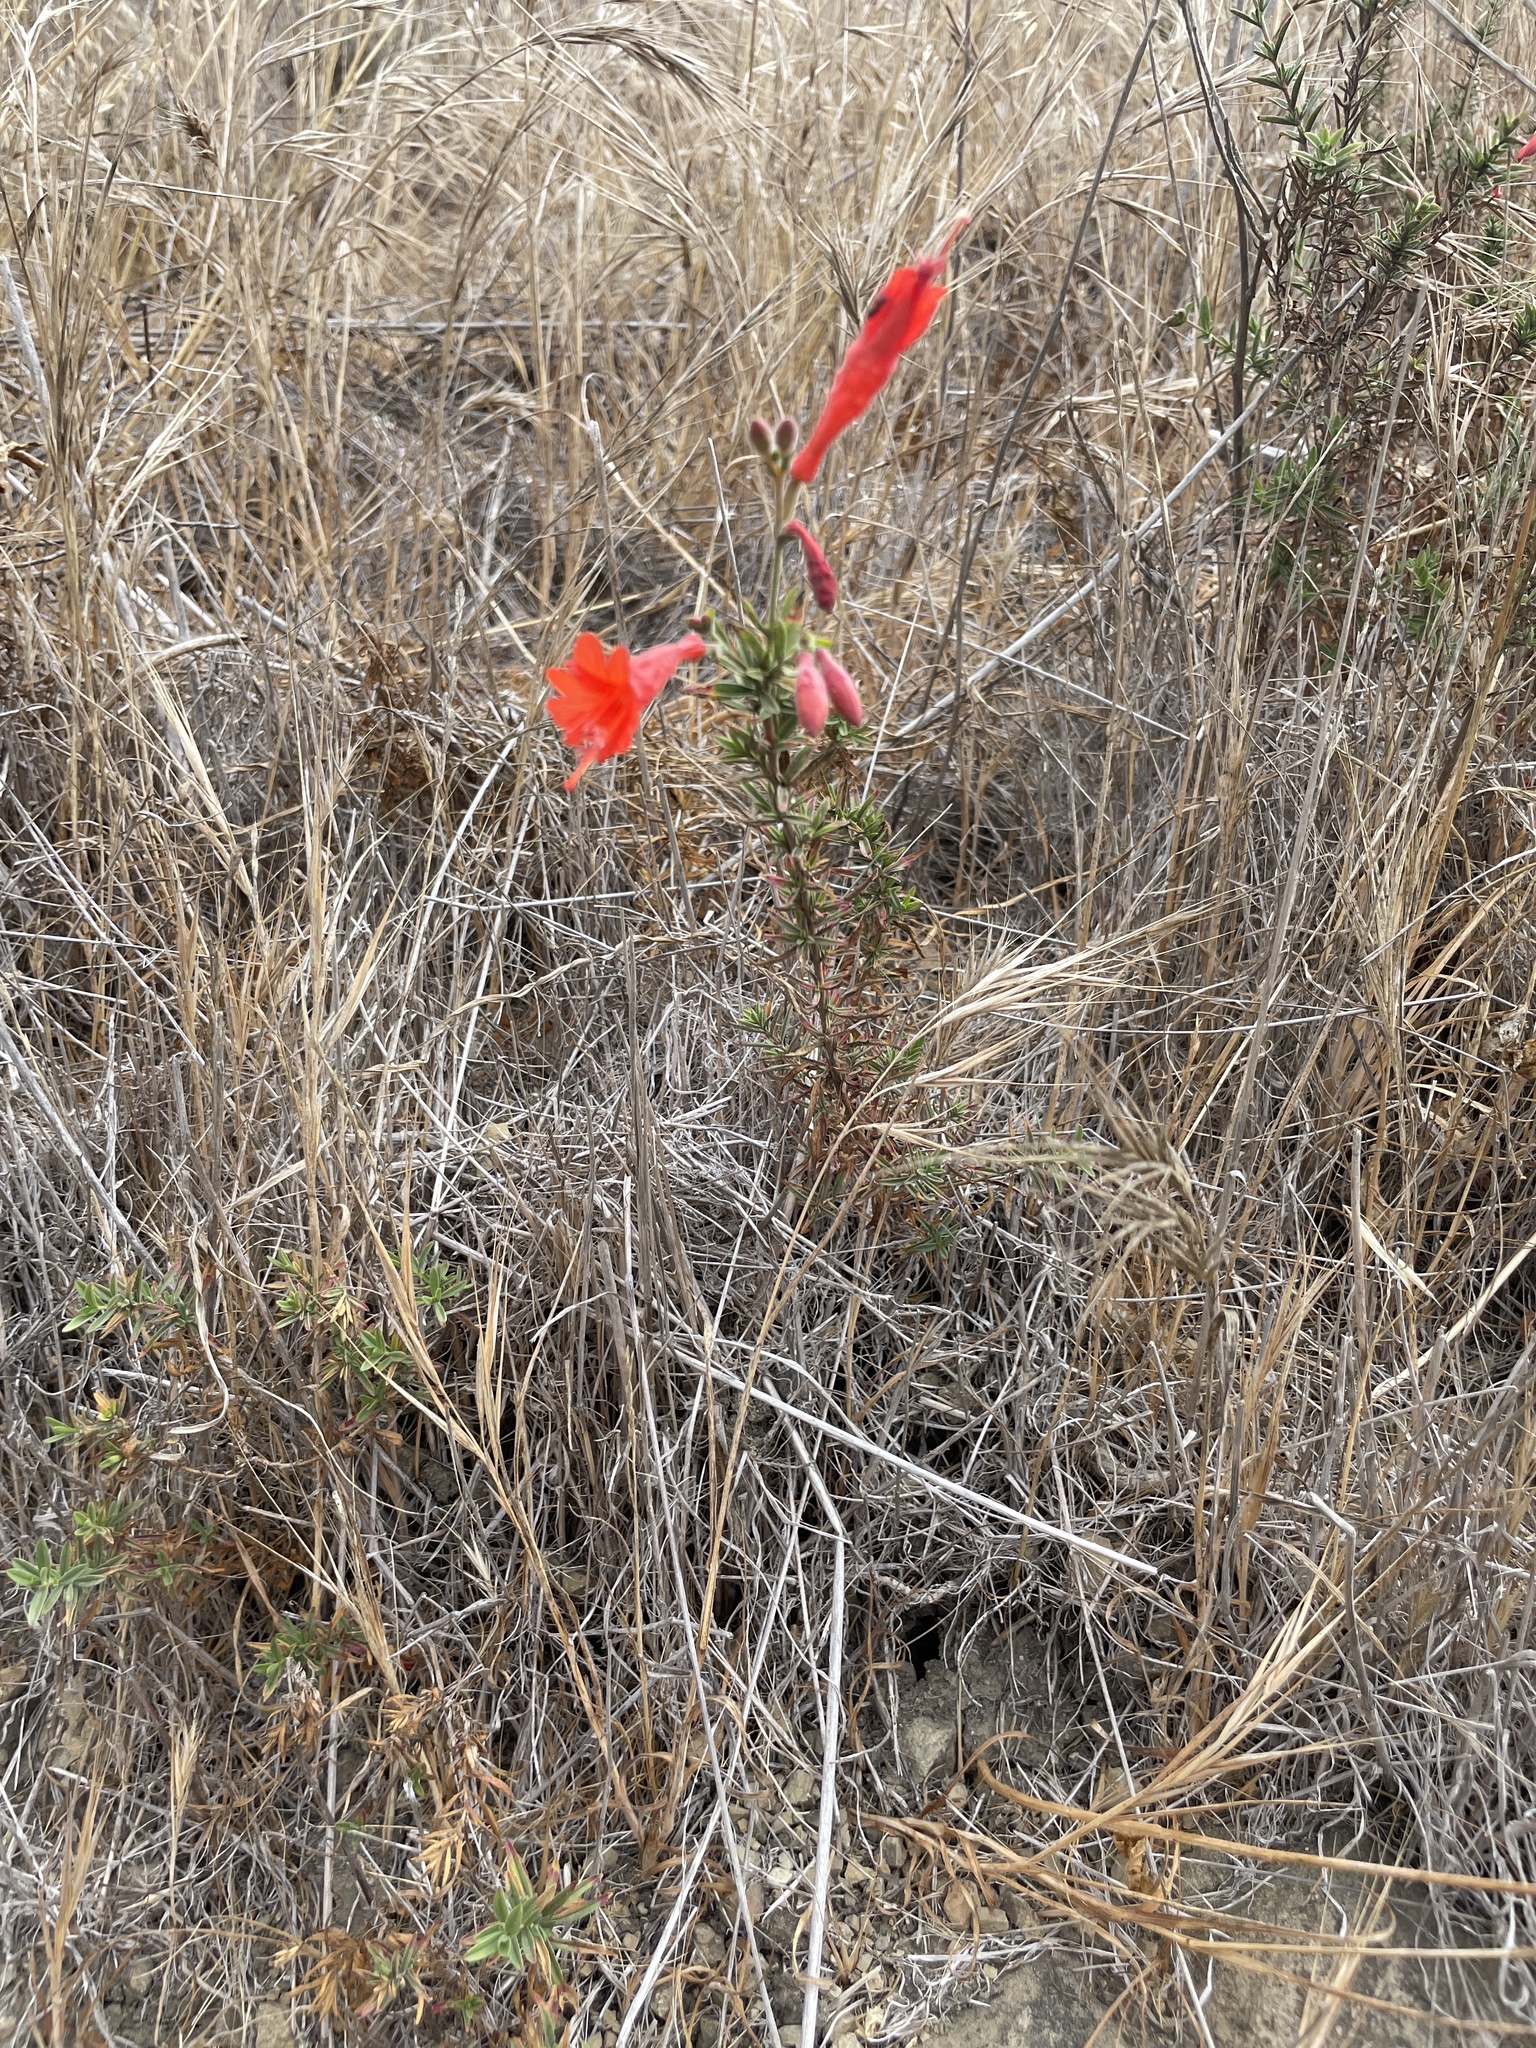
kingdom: Plantae
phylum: Tracheophyta
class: Magnoliopsida
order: Myrtales
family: Onagraceae
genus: Epilobium
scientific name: Epilobium canum
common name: California-fuchsia
